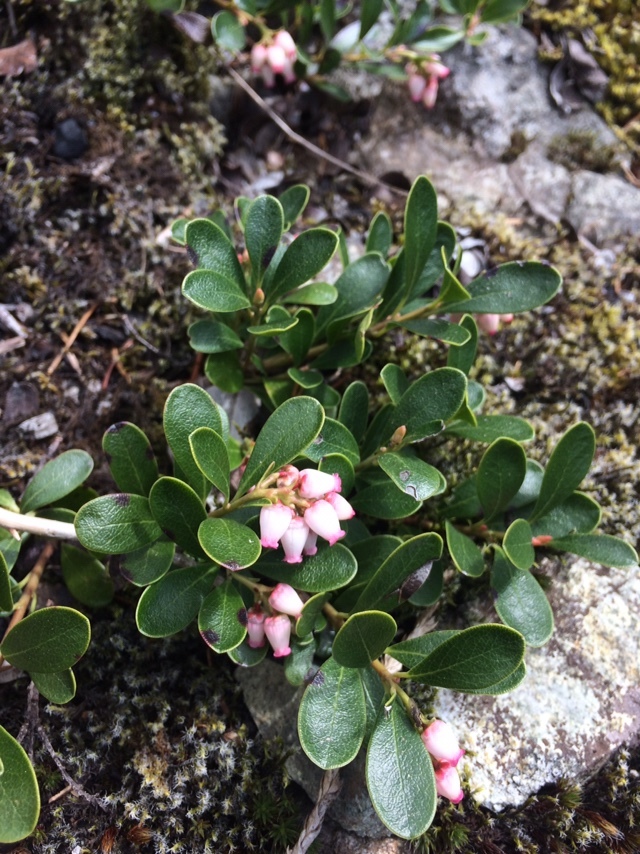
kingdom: Plantae
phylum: Tracheophyta
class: Magnoliopsida
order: Ericales
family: Ericaceae
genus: Arctostaphylos
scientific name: Arctostaphylos uva-ursi
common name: Bearberry
